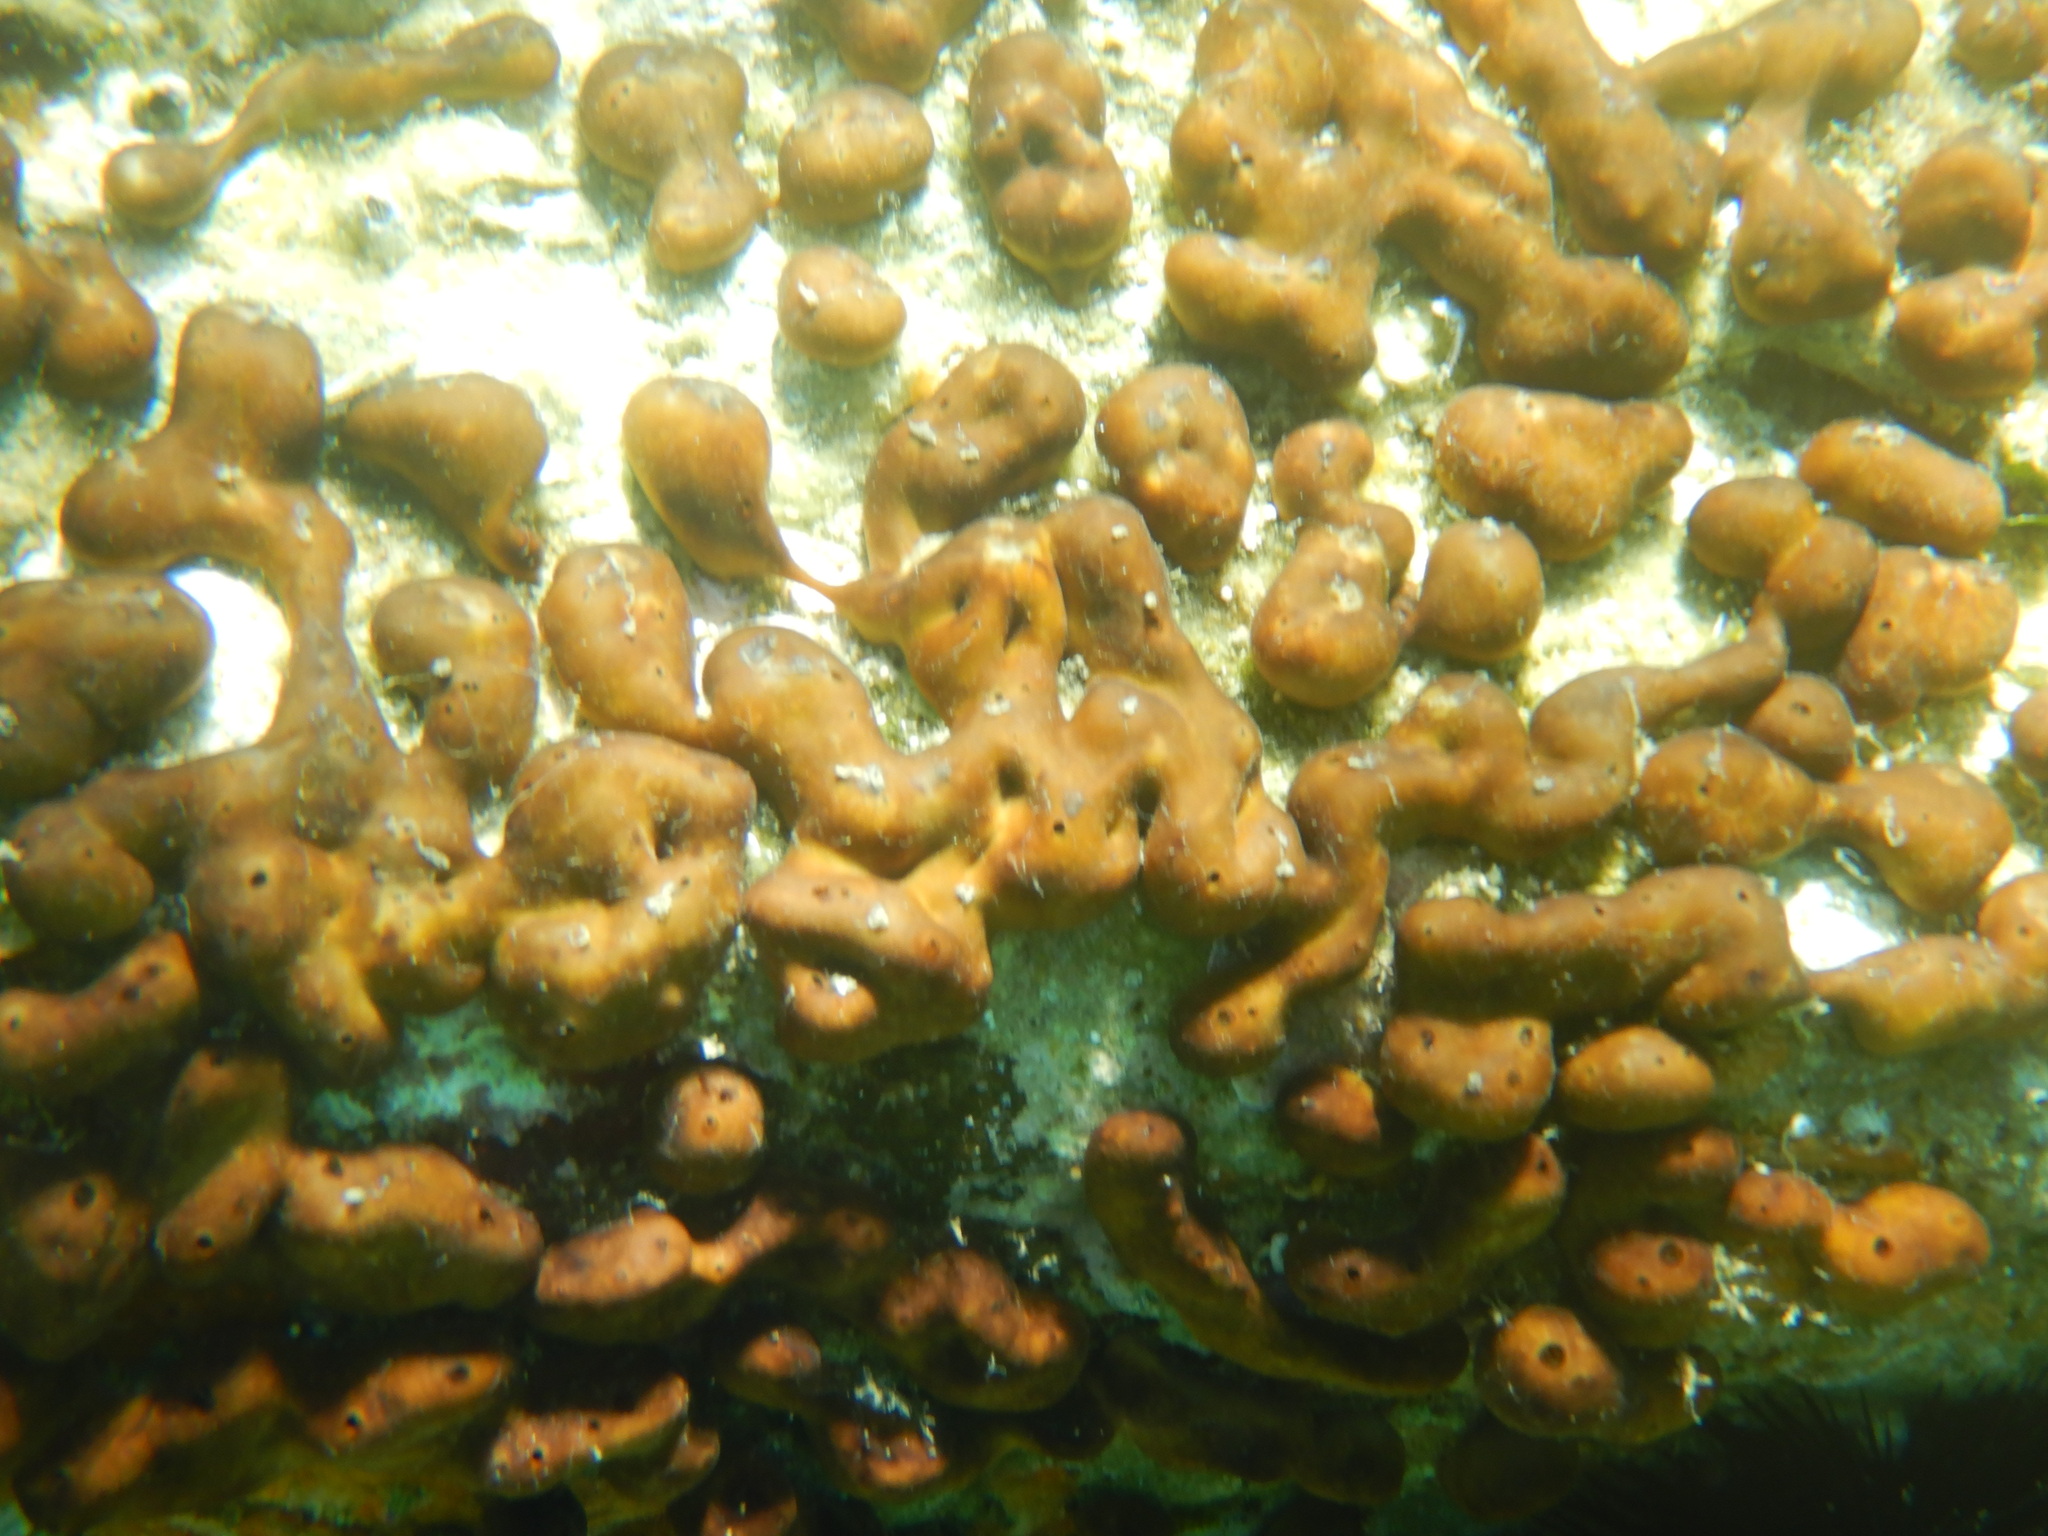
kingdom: Animalia
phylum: Porifera
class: Demospongiae
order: Chondrillida
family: Chondrillidae
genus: Chondrilla
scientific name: Chondrilla nucula
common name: Chicken liver sponge
